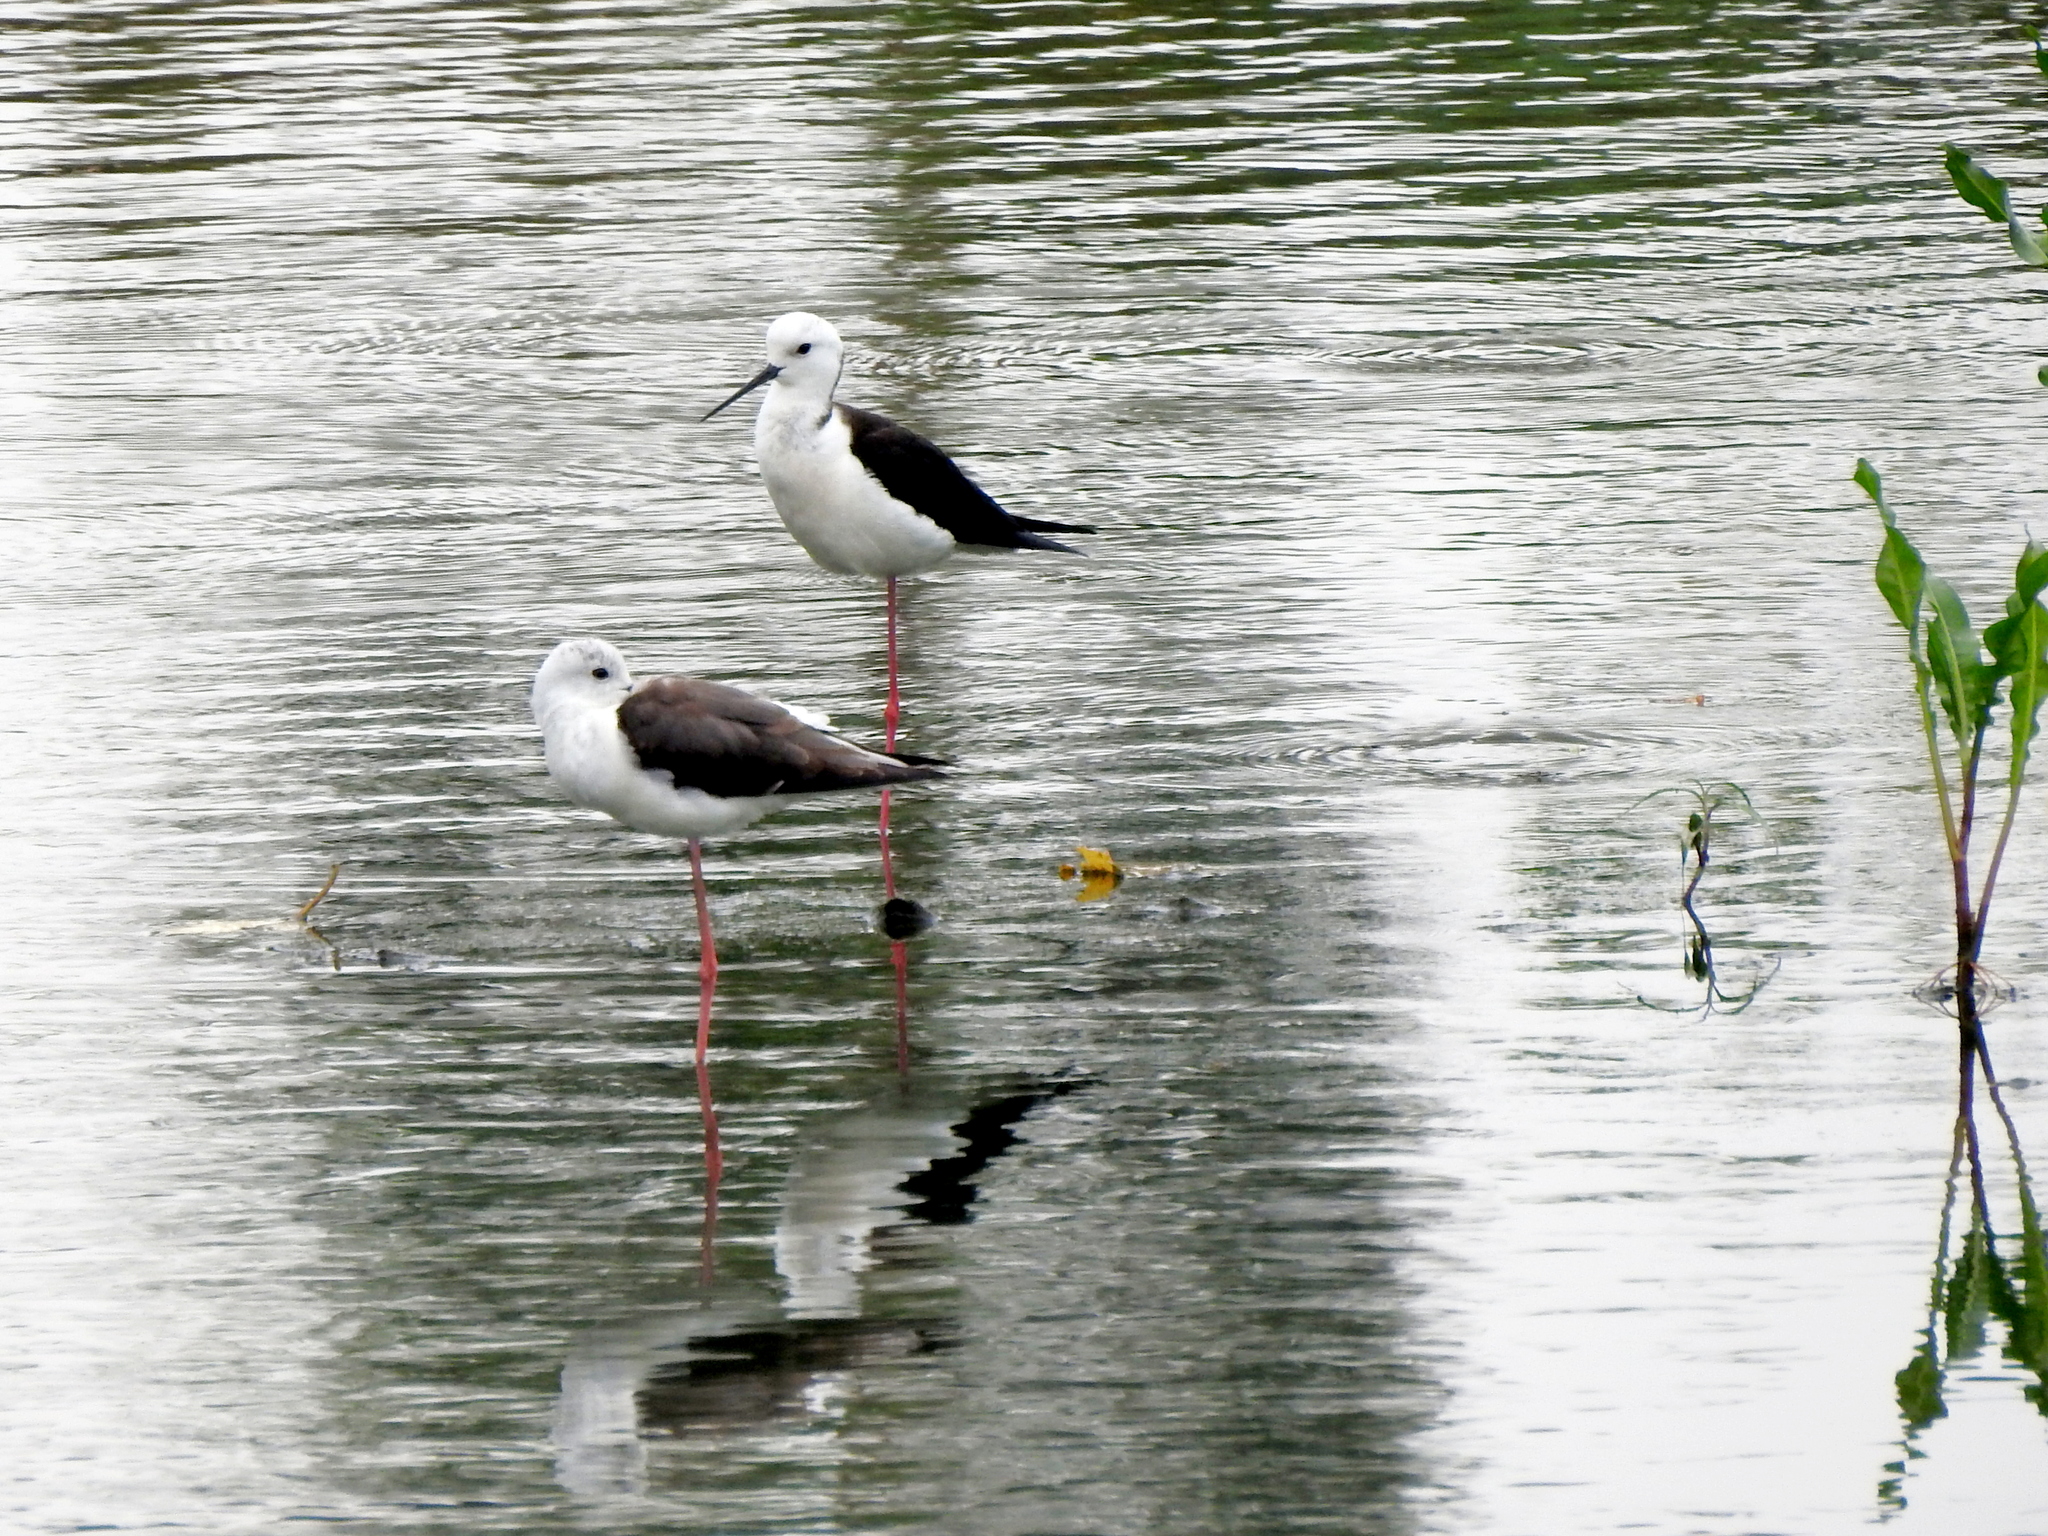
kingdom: Animalia
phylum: Chordata
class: Aves
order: Charadriiformes
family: Recurvirostridae
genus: Himantopus
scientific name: Himantopus himantopus
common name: Black-winged stilt
